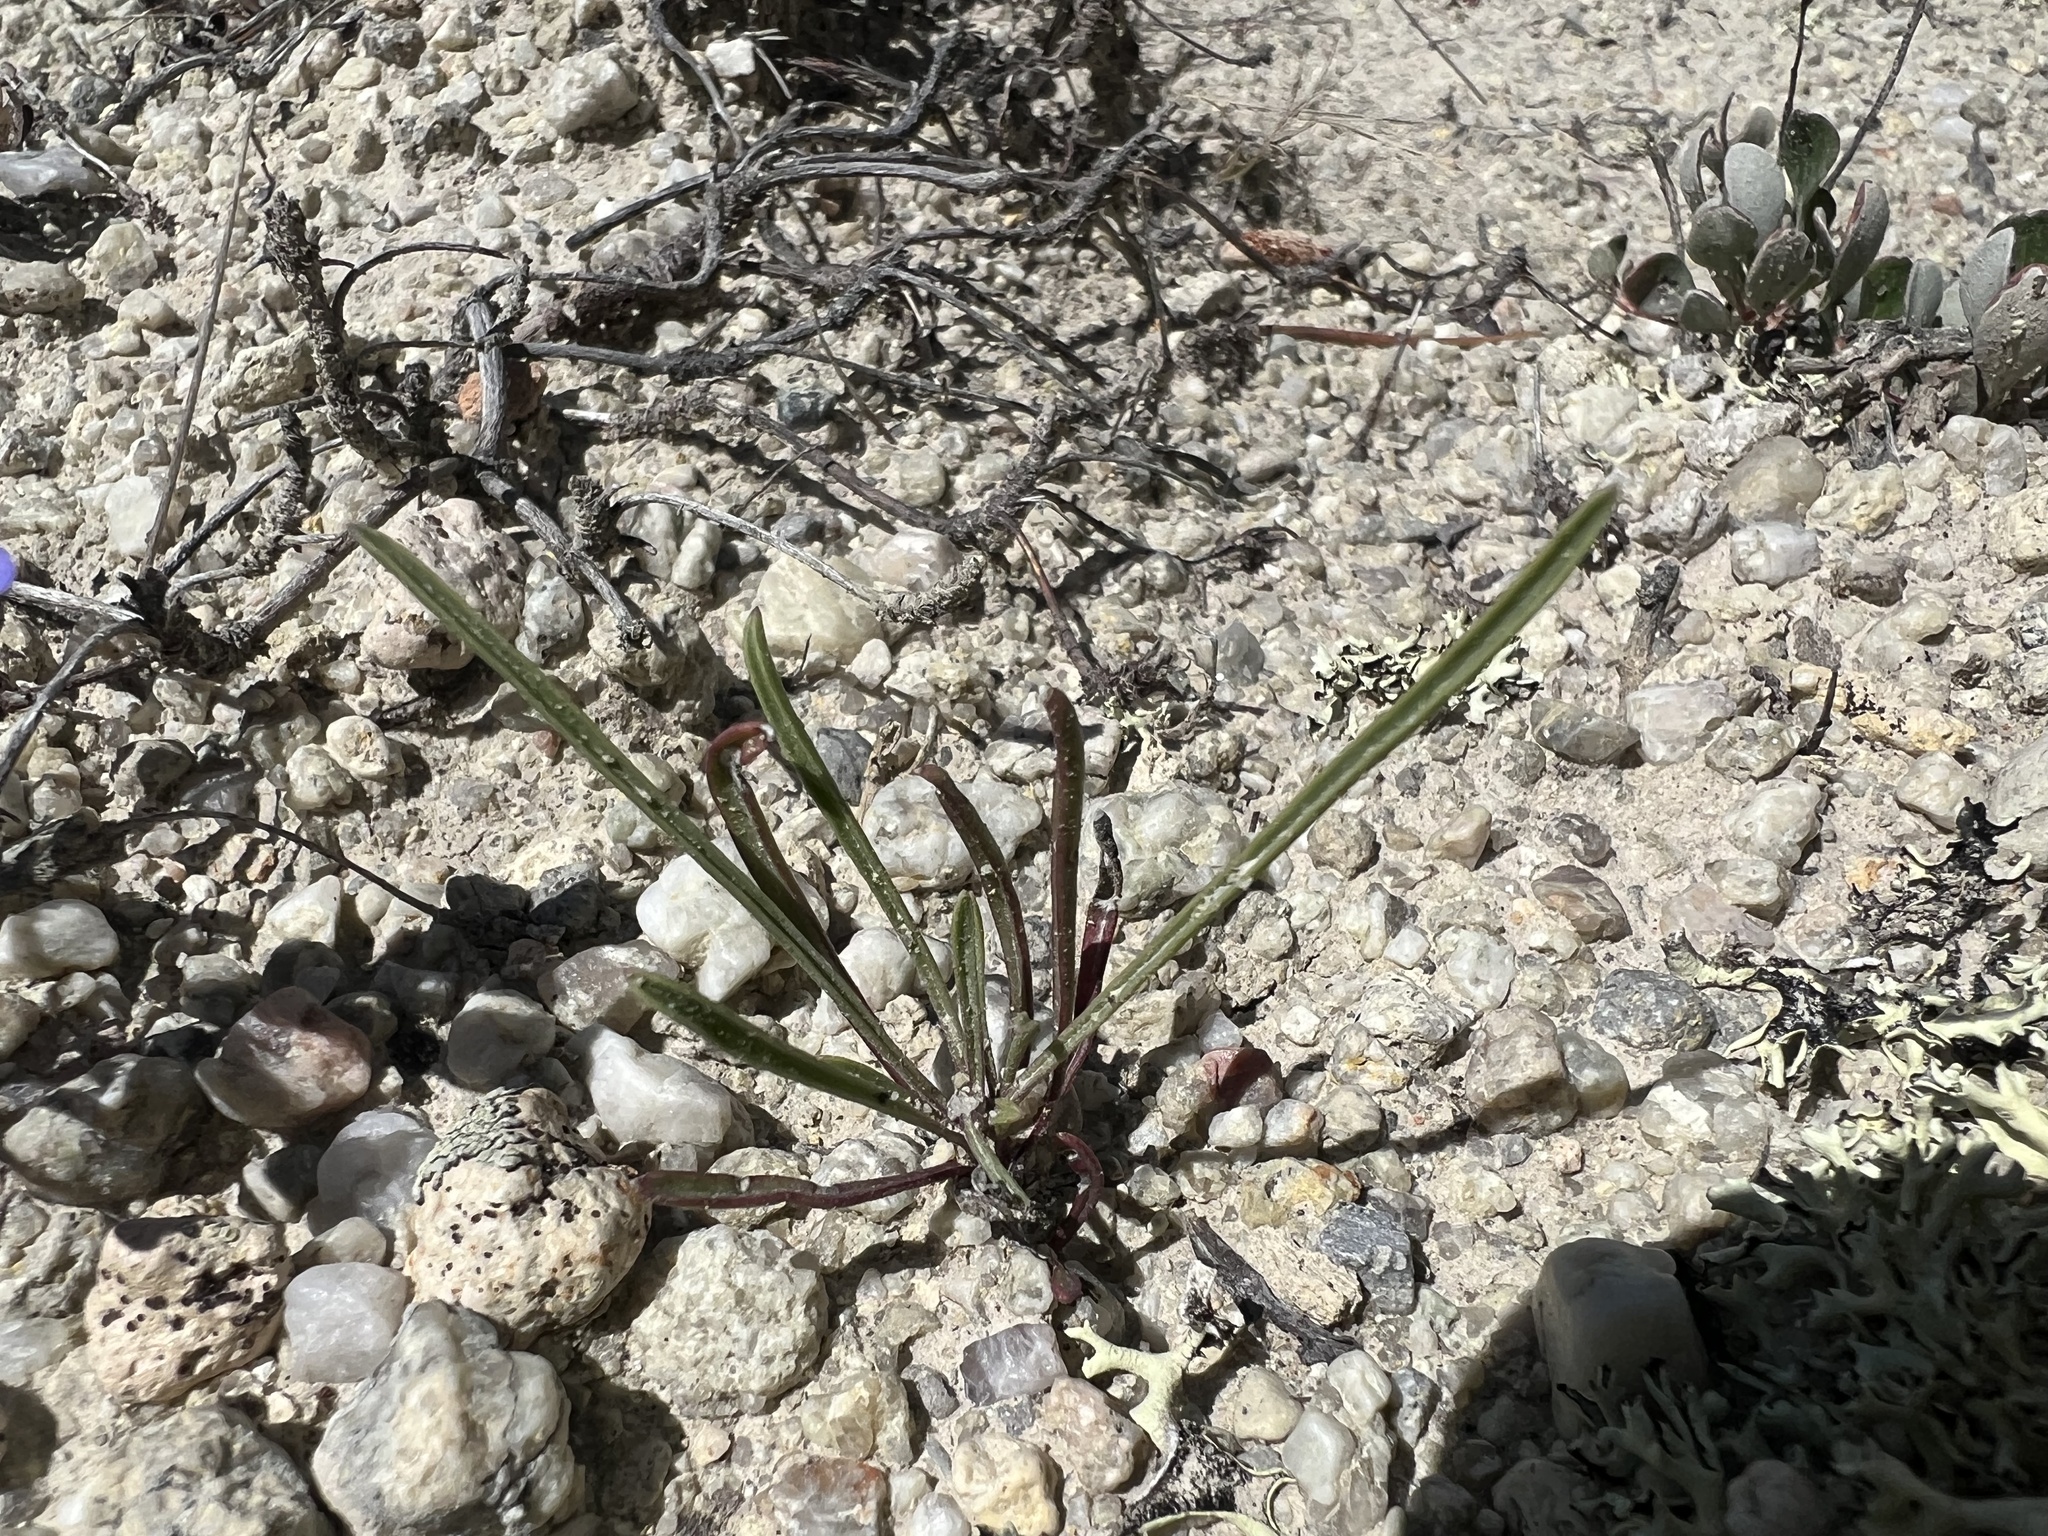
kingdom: Plantae
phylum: Tracheophyta
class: Magnoliopsida
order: Lamiales
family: Plantaginaceae
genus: Penstemon
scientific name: Penstemon penlandii
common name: Penland's beardtongue
